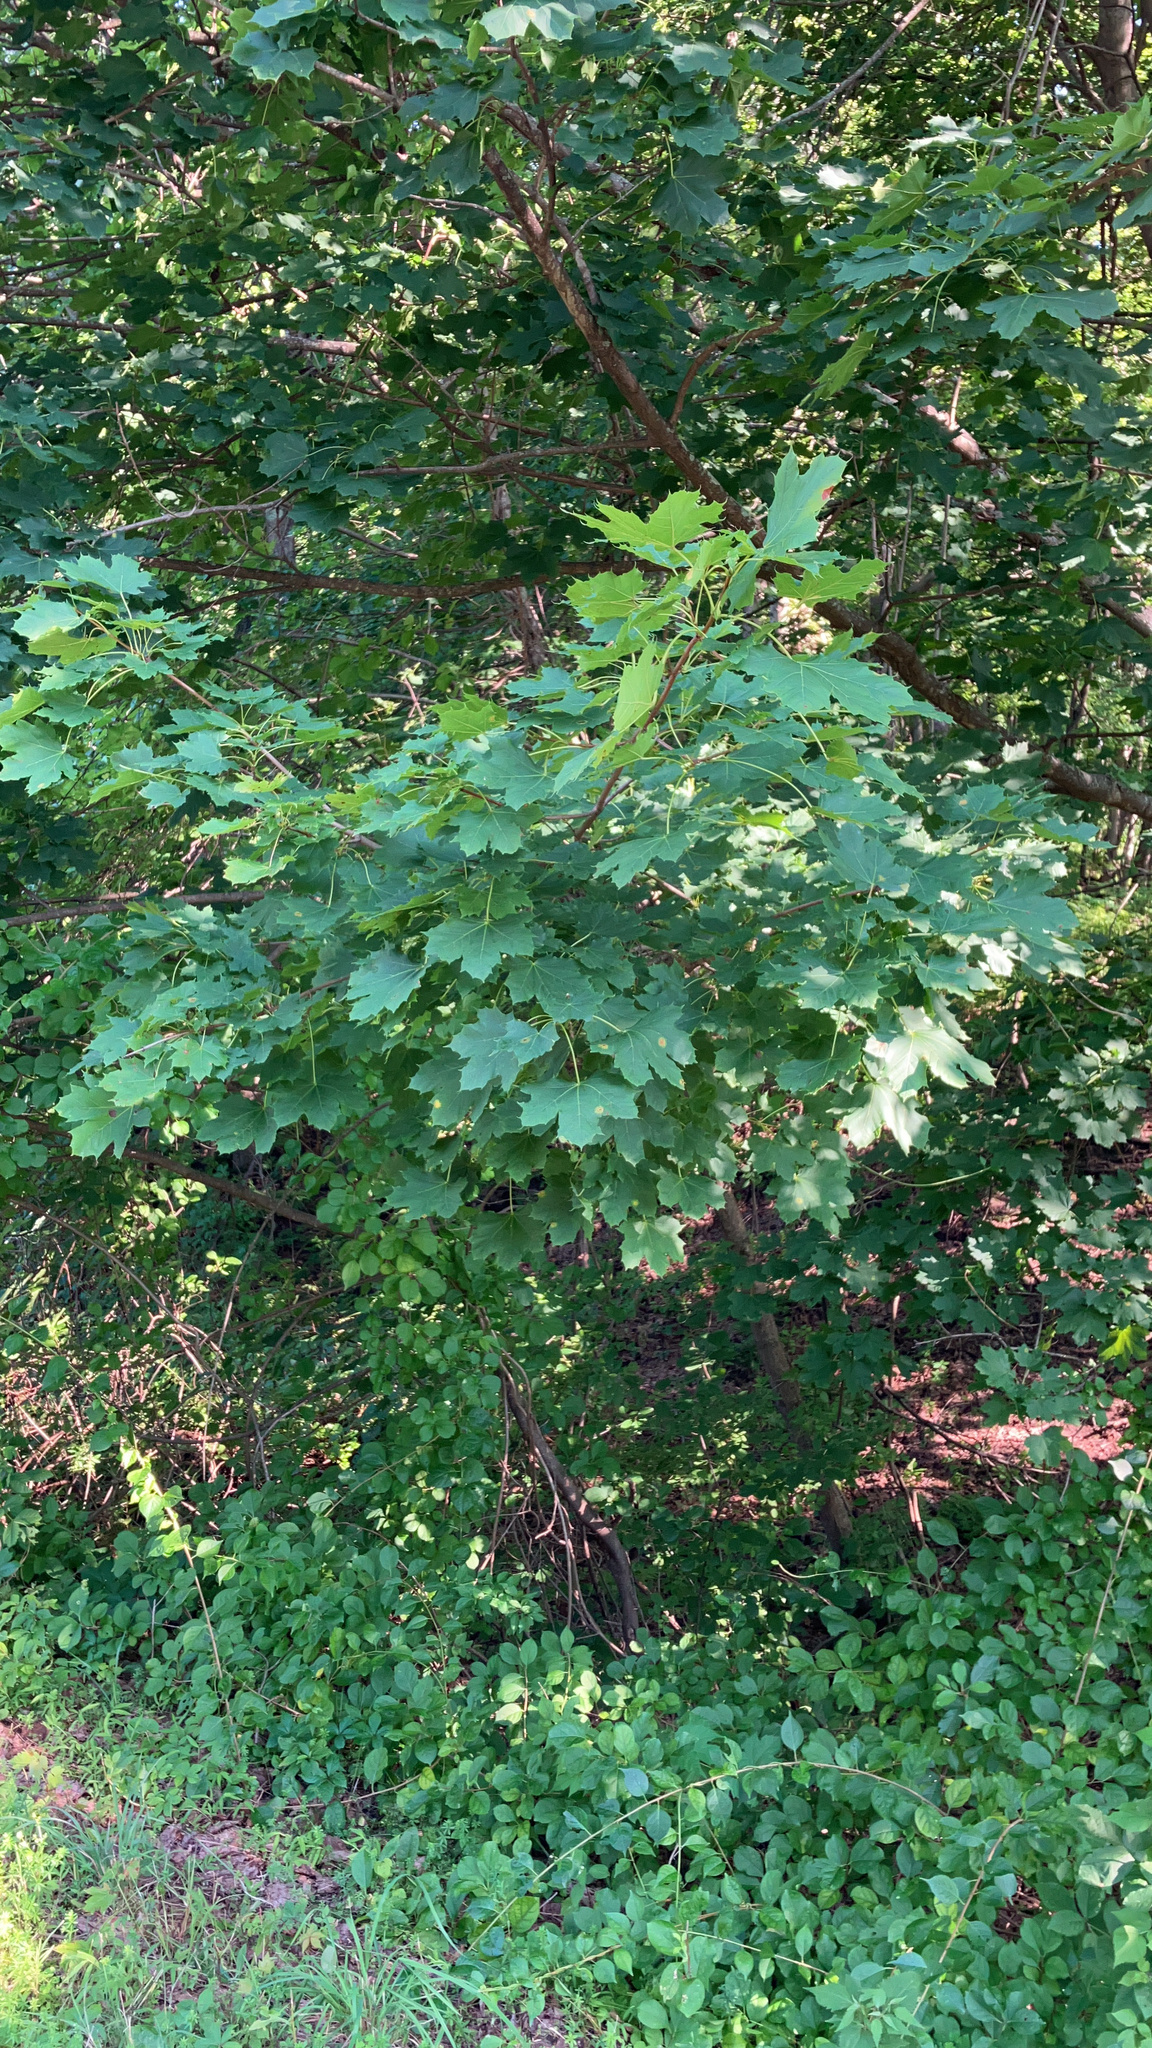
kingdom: Plantae
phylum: Tracheophyta
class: Magnoliopsida
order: Sapindales
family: Sapindaceae
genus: Acer
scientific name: Acer platanoides
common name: Norway maple
